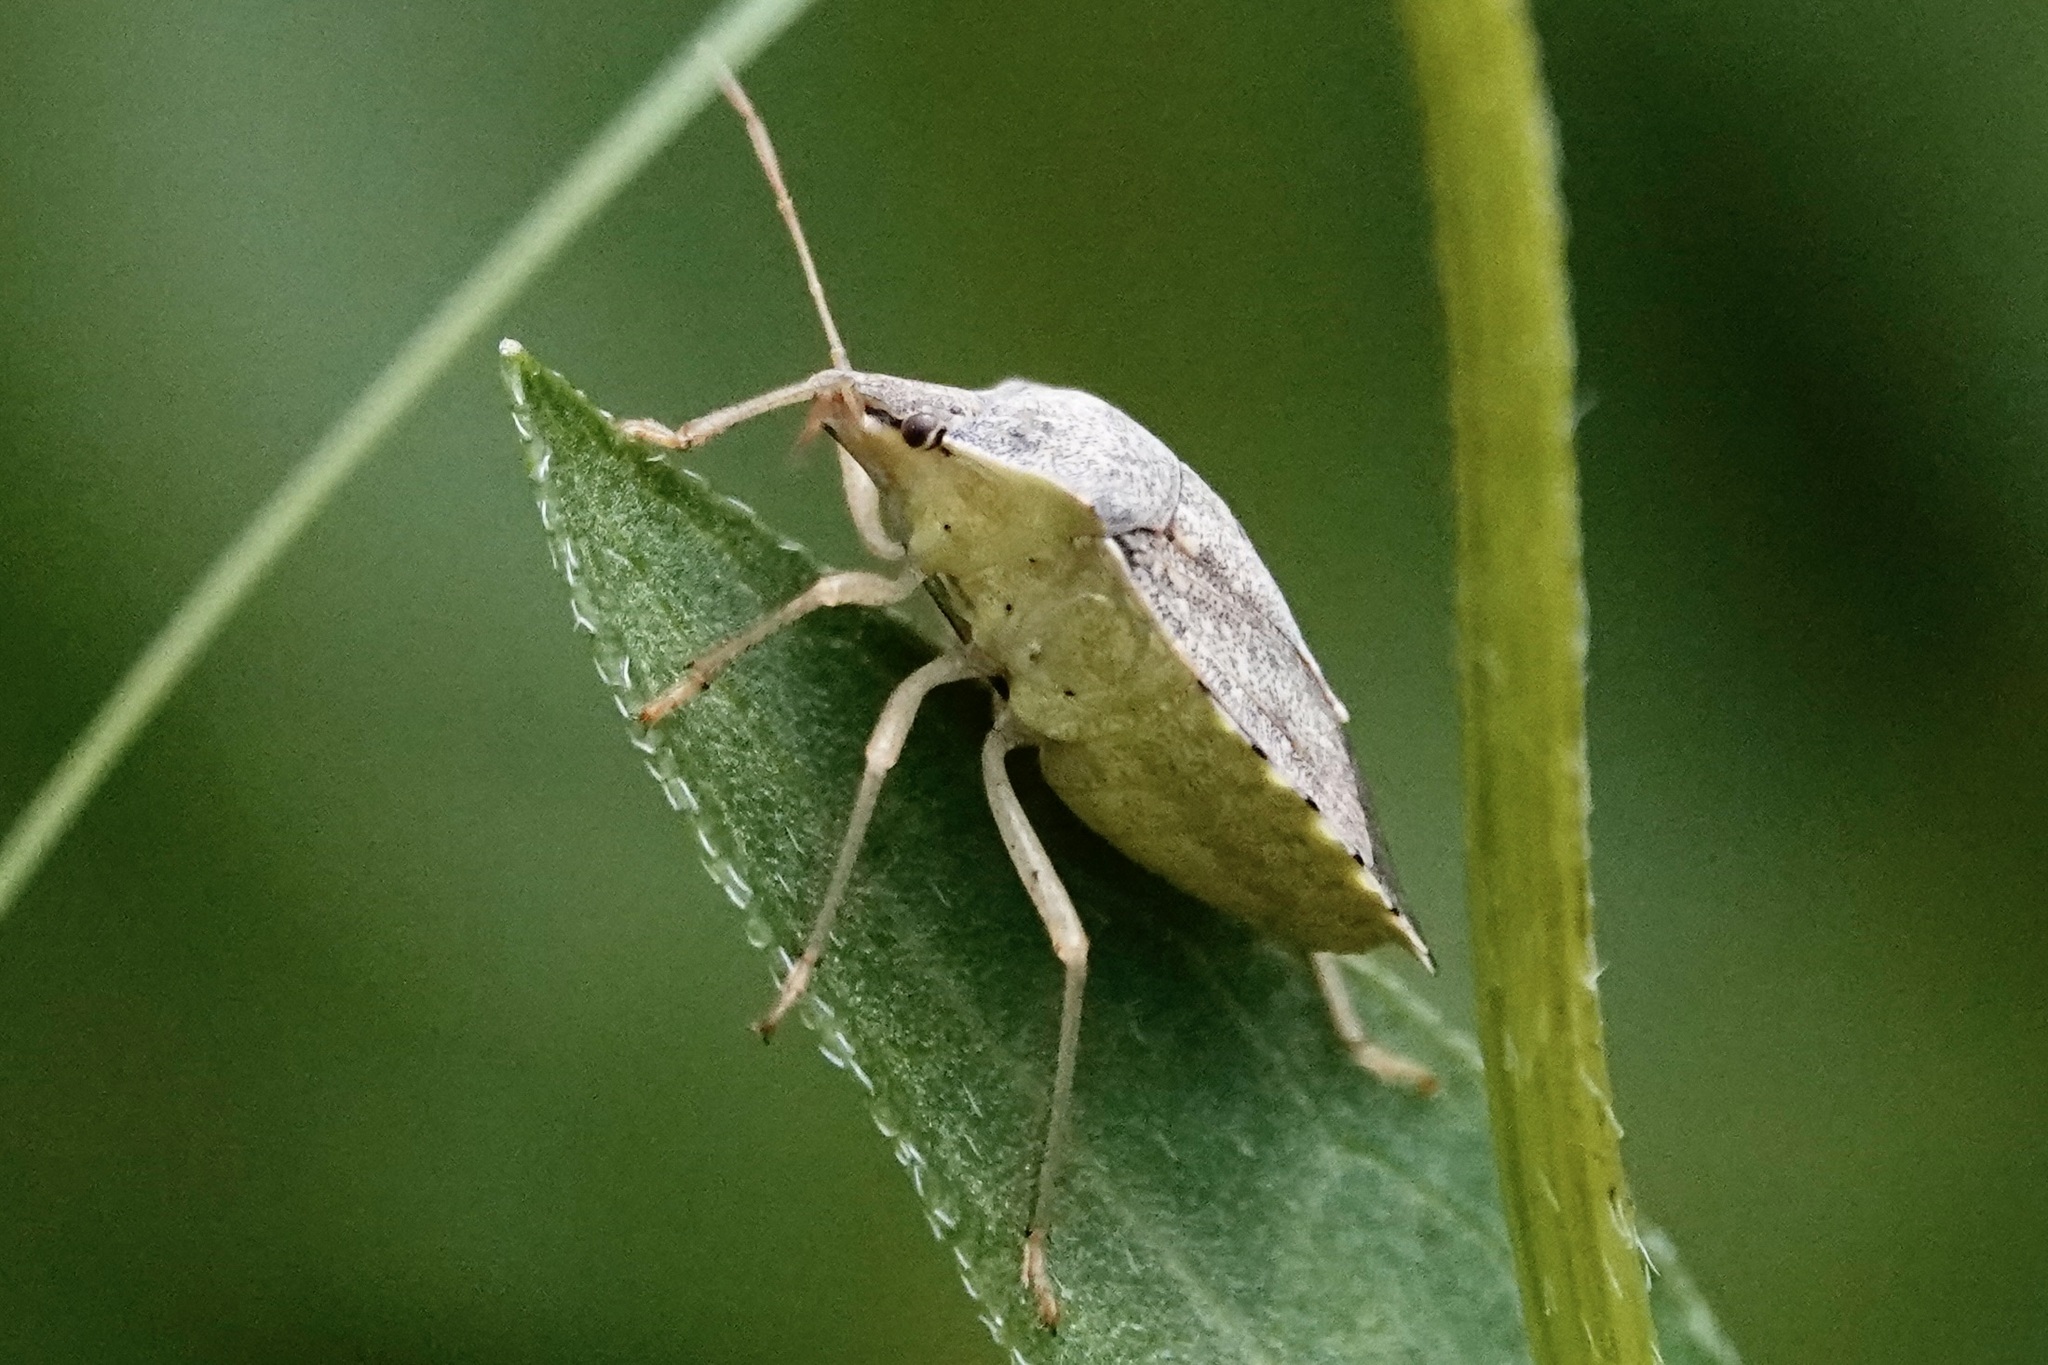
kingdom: Animalia
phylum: Arthropoda
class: Insecta
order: Hemiptera
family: Pentatomidae
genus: Euschistus
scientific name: Euschistus servus
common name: Brown stink bug
